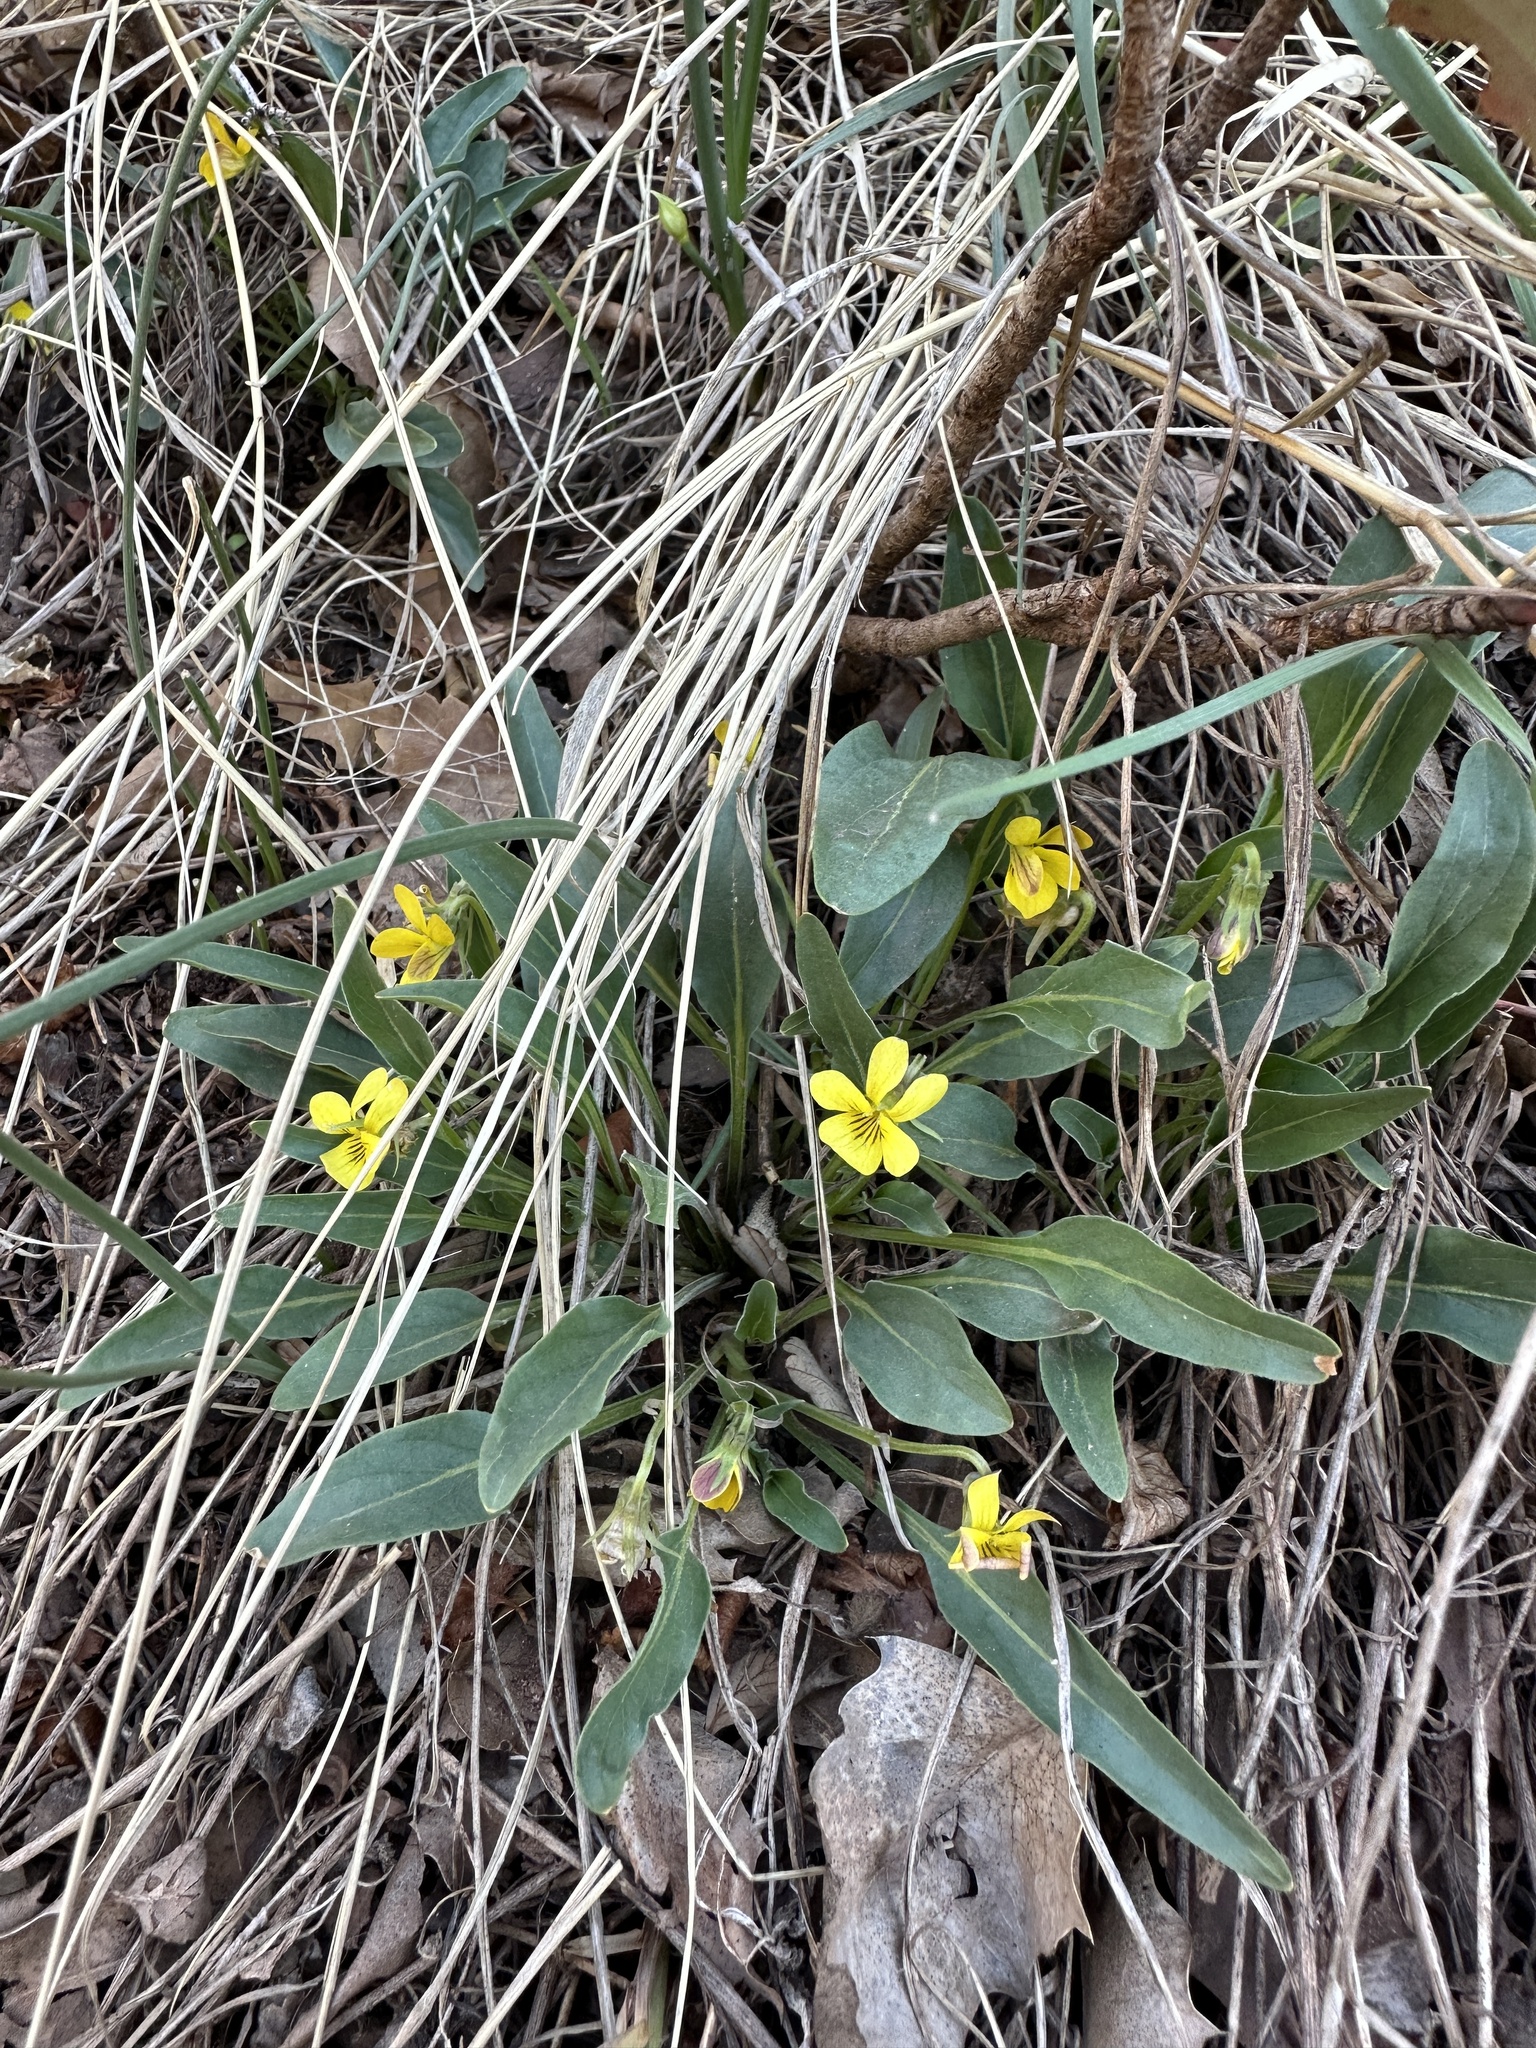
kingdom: Plantae
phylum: Tracheophyta
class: Magnoliopsida
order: Malpighiales
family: Violaceae
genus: Viola
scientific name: Viola nuttallii
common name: Yellow prairie violet
